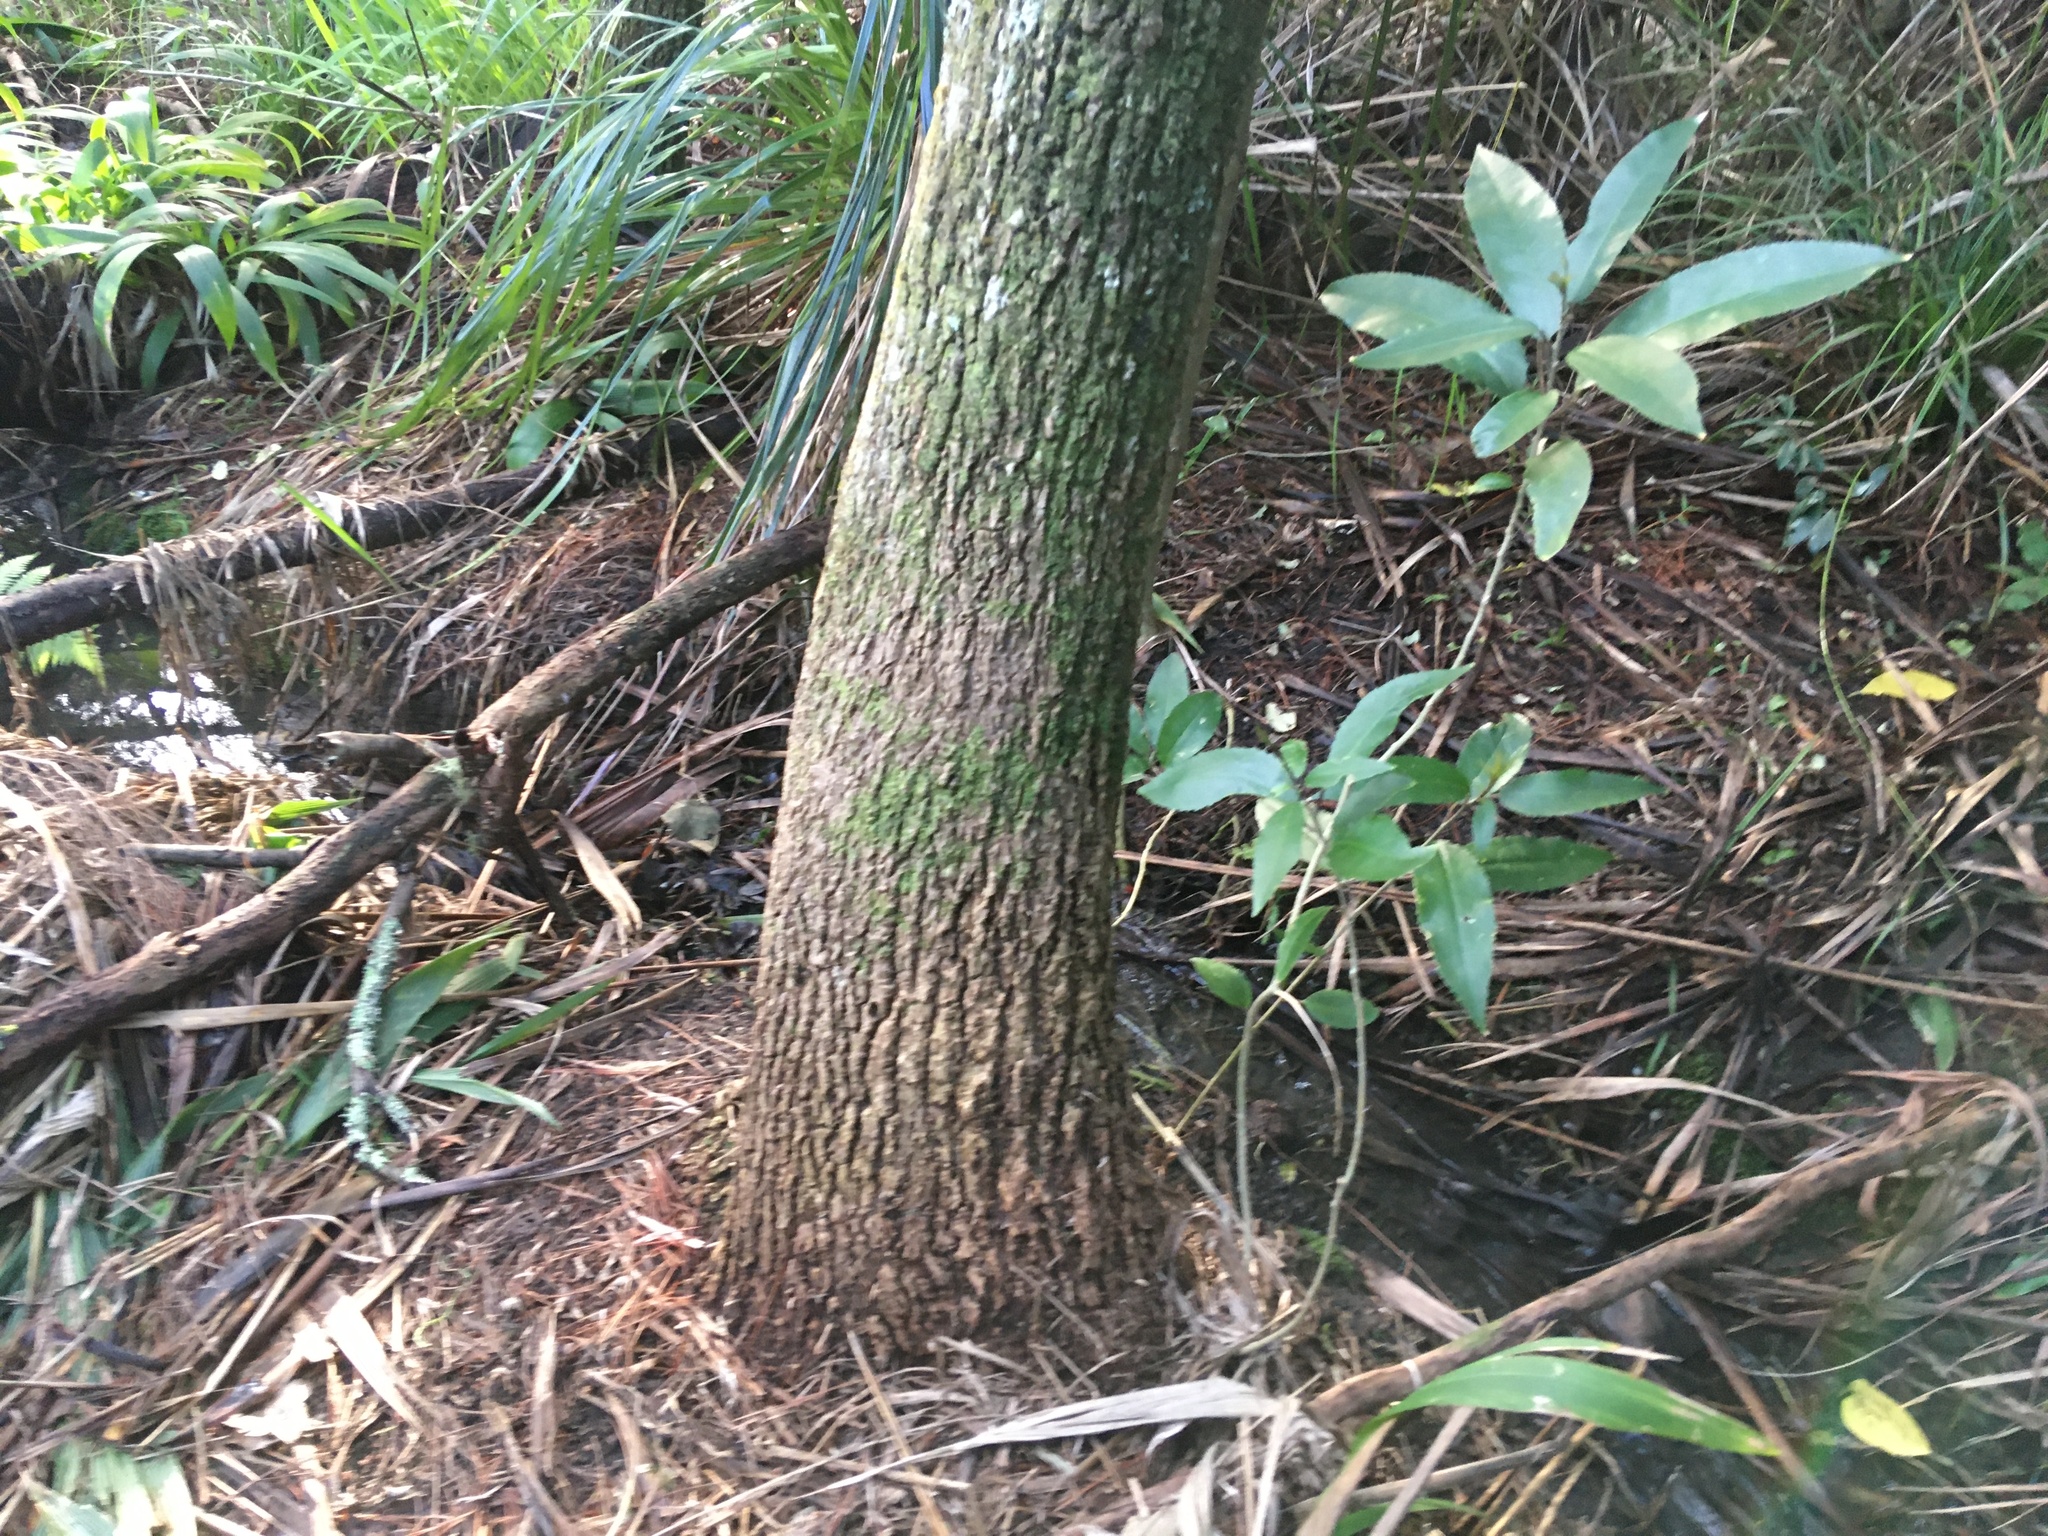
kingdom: Plantae
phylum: Tracheophyta
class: Liliopsida
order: Asparagales
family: Asparagaceae
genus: Cordyline
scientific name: Cordyline australis
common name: Cabbage-palm
